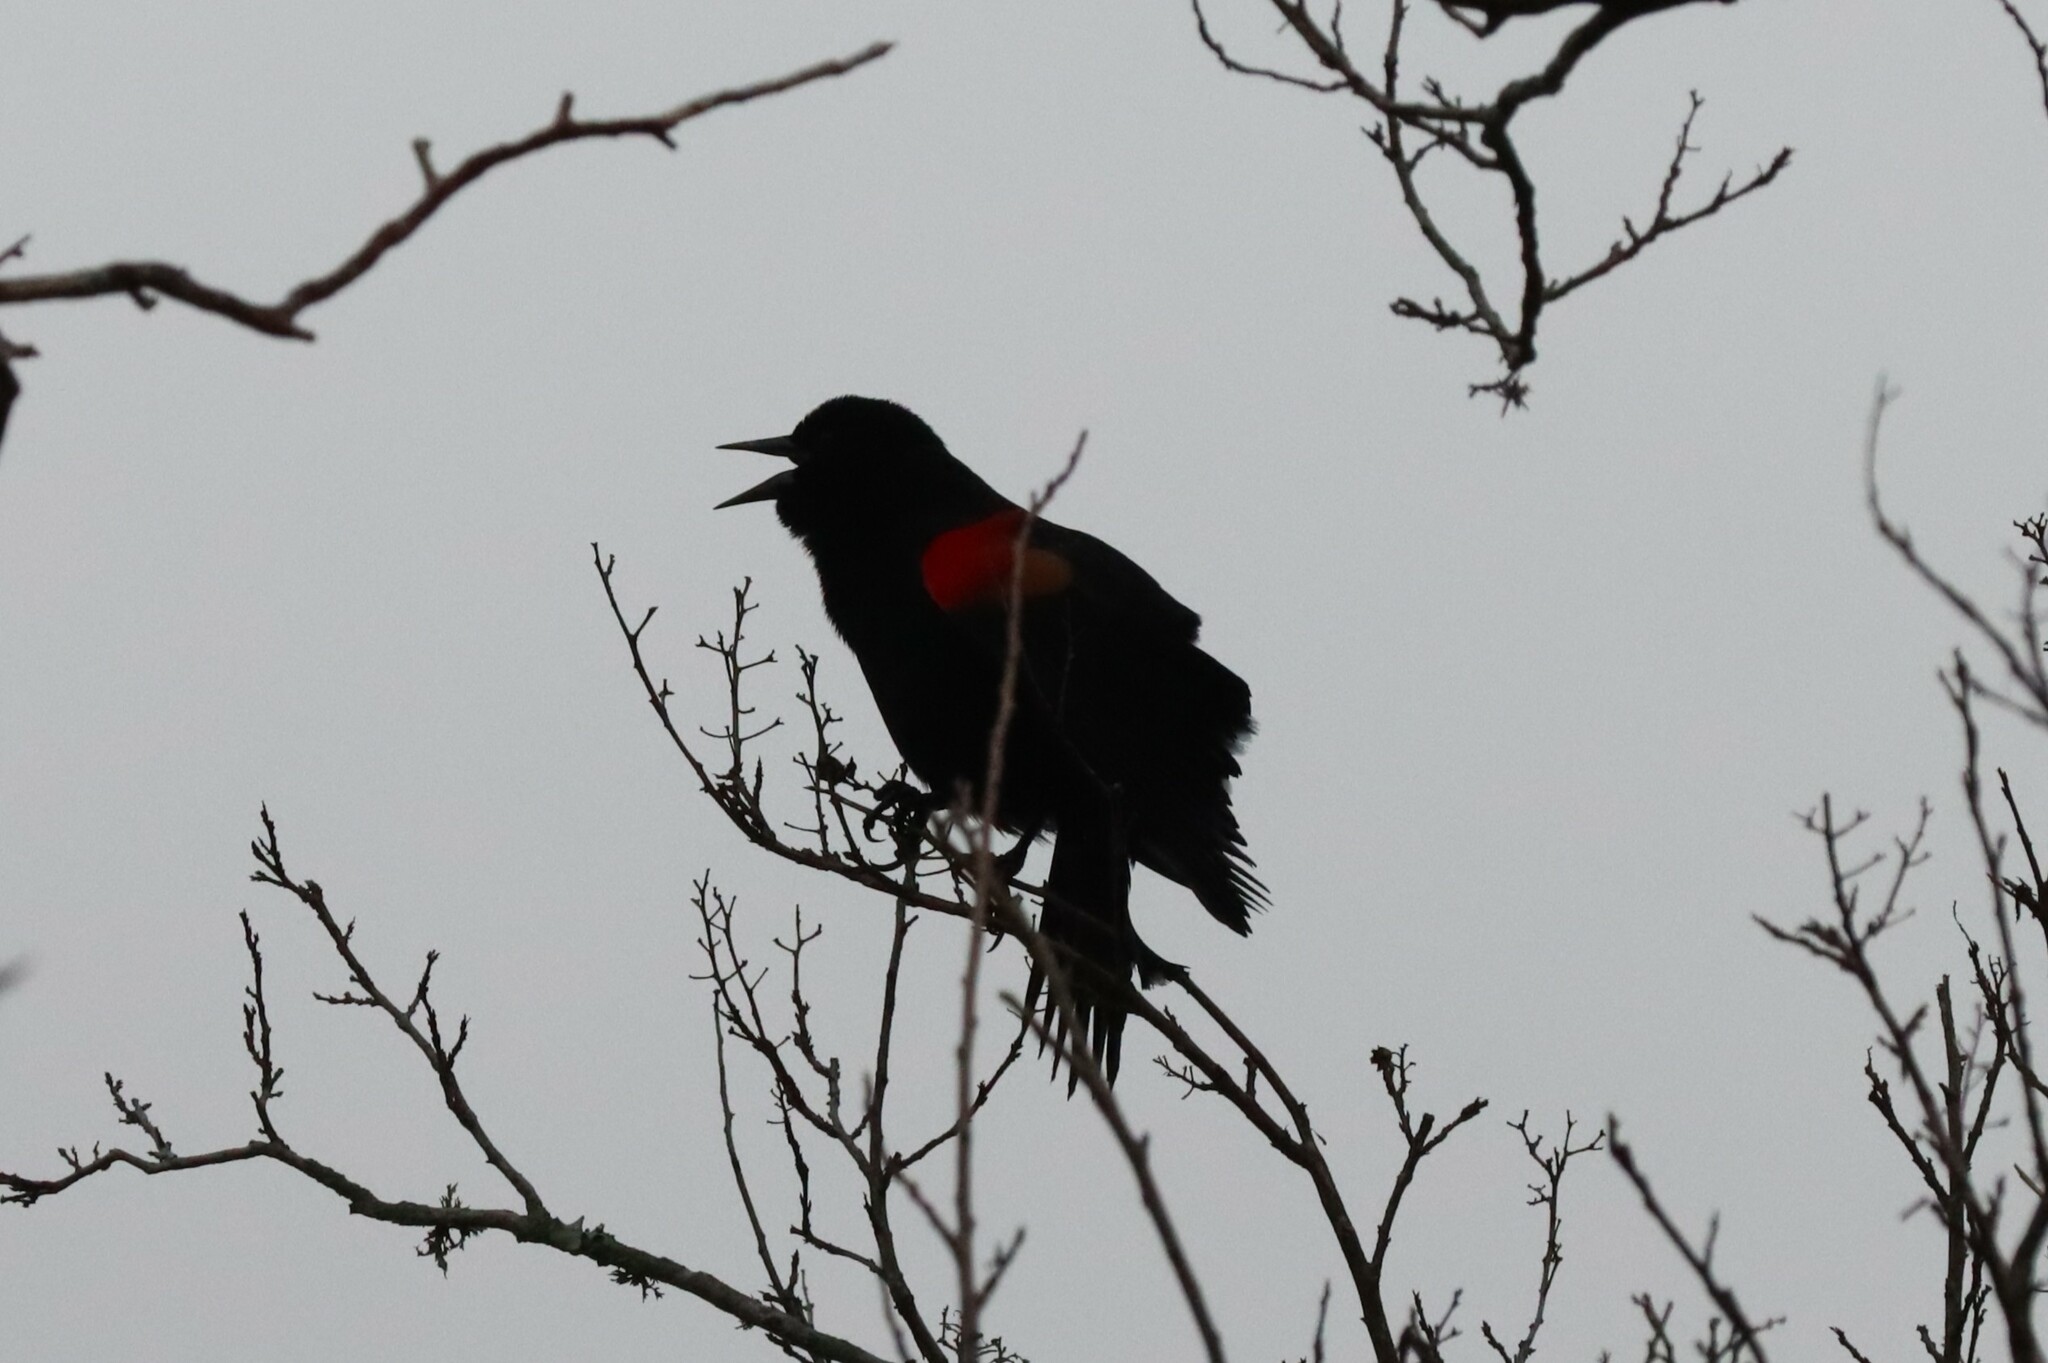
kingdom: Animalia
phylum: Chordata
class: Aves
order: Passeriformes
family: Icteridae
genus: Agelaius
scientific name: Agelaius phoeniceus
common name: Red-winged blackbird
